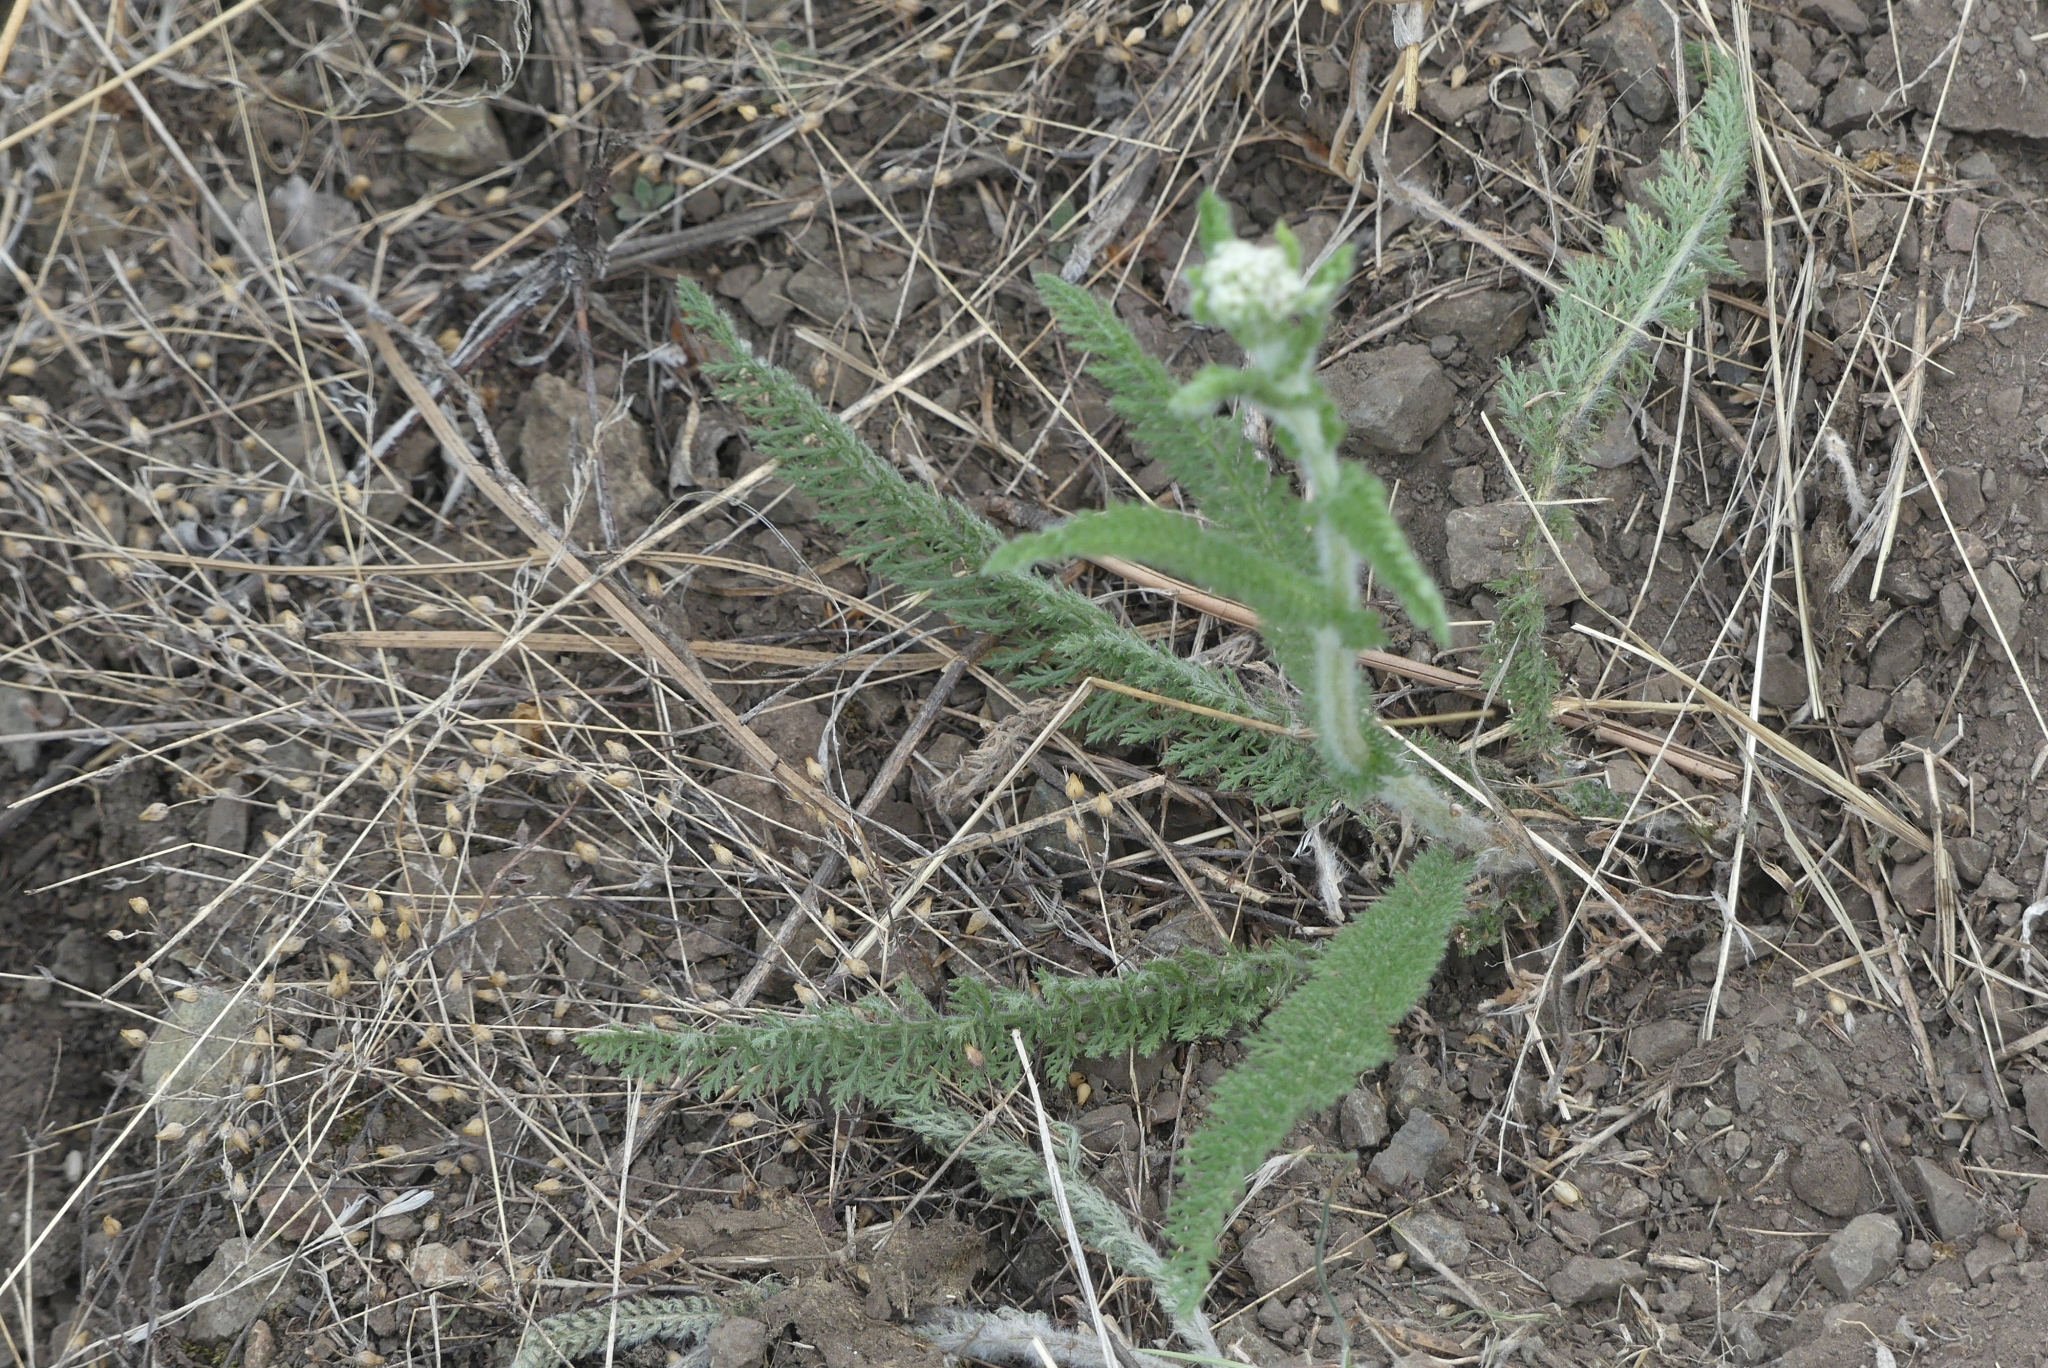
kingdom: Plantae
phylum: Tracheophyta
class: Magnoliopsida
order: Asterales
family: Asteraceae
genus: Achillea
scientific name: Achillea millefolium
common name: Yarrow
